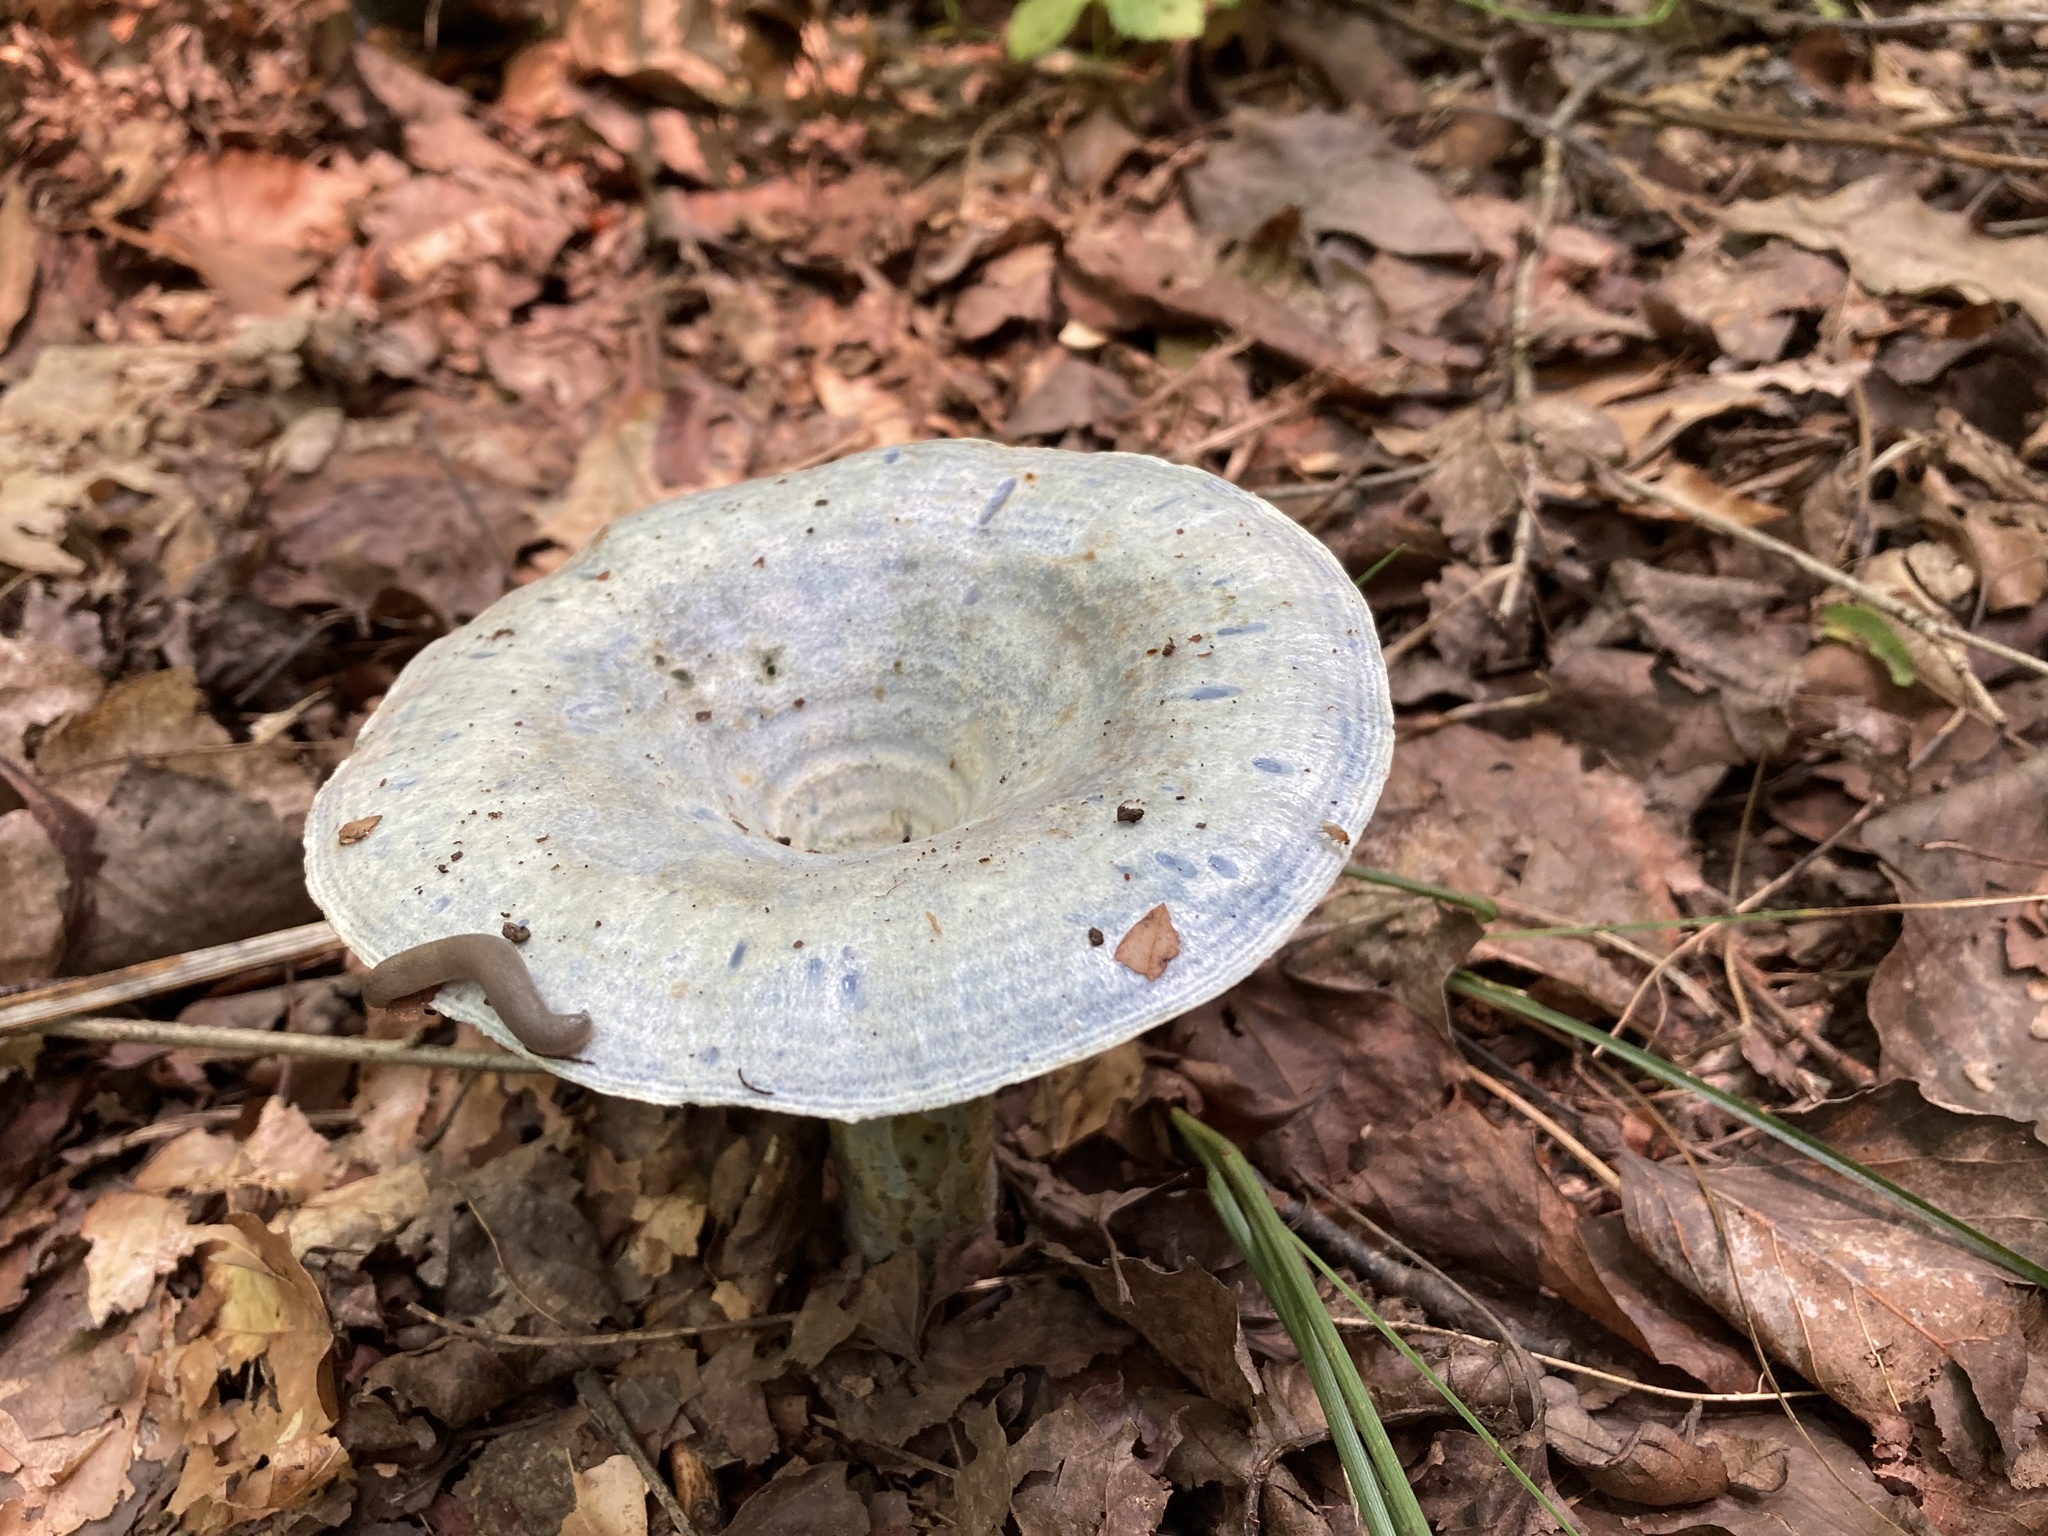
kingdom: Fungi
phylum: Basidiomycota
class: Agaricomycetes
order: Russulales
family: Russulaceae
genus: Lactarius
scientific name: Lactarius indigo
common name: Indigo milk cap
